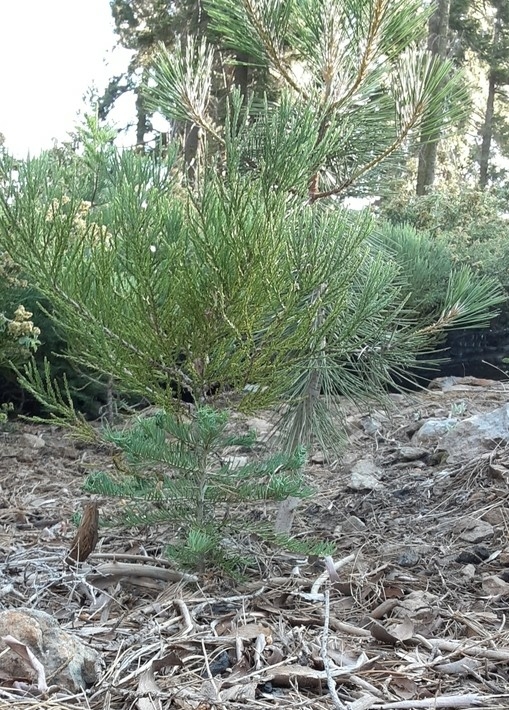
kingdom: Plantae
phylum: Tracheophyta
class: Pinopsida
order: Pinales
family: Cupressaceae
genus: Sequoiadendron
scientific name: Sequoiadendron giganteum
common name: Wellingtonia
